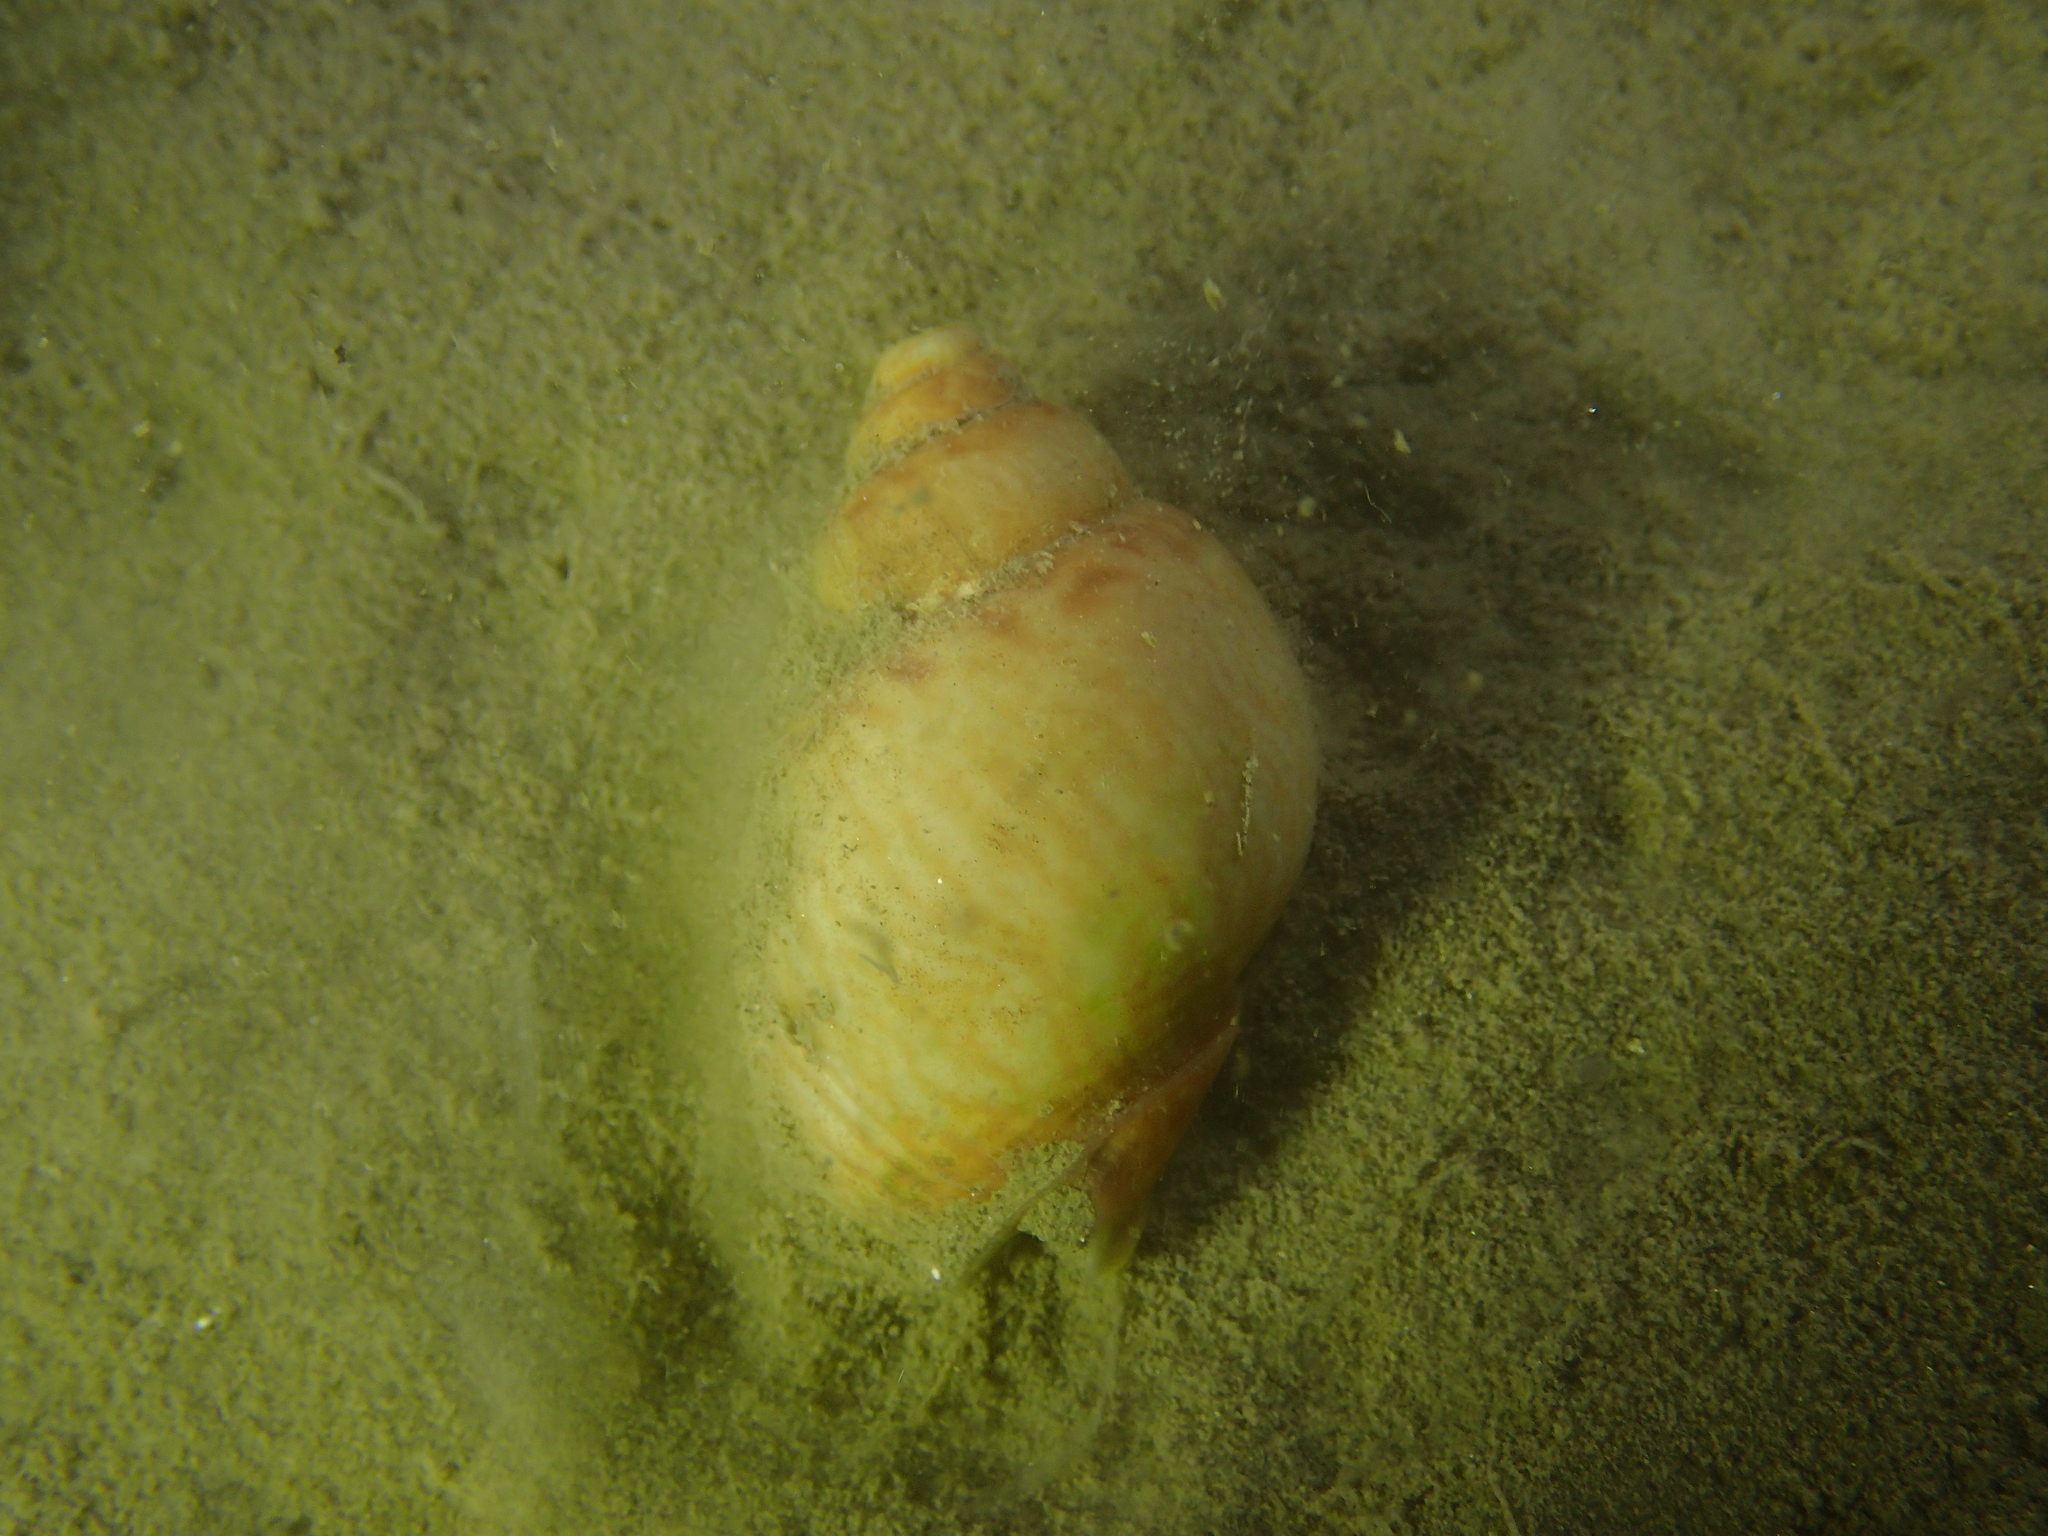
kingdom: Animalia
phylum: Mollusca
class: Gastropoda
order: Neogastropoda
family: Nassariidae
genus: Tritia
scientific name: Tritia mutabilis
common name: Mutable nassa
